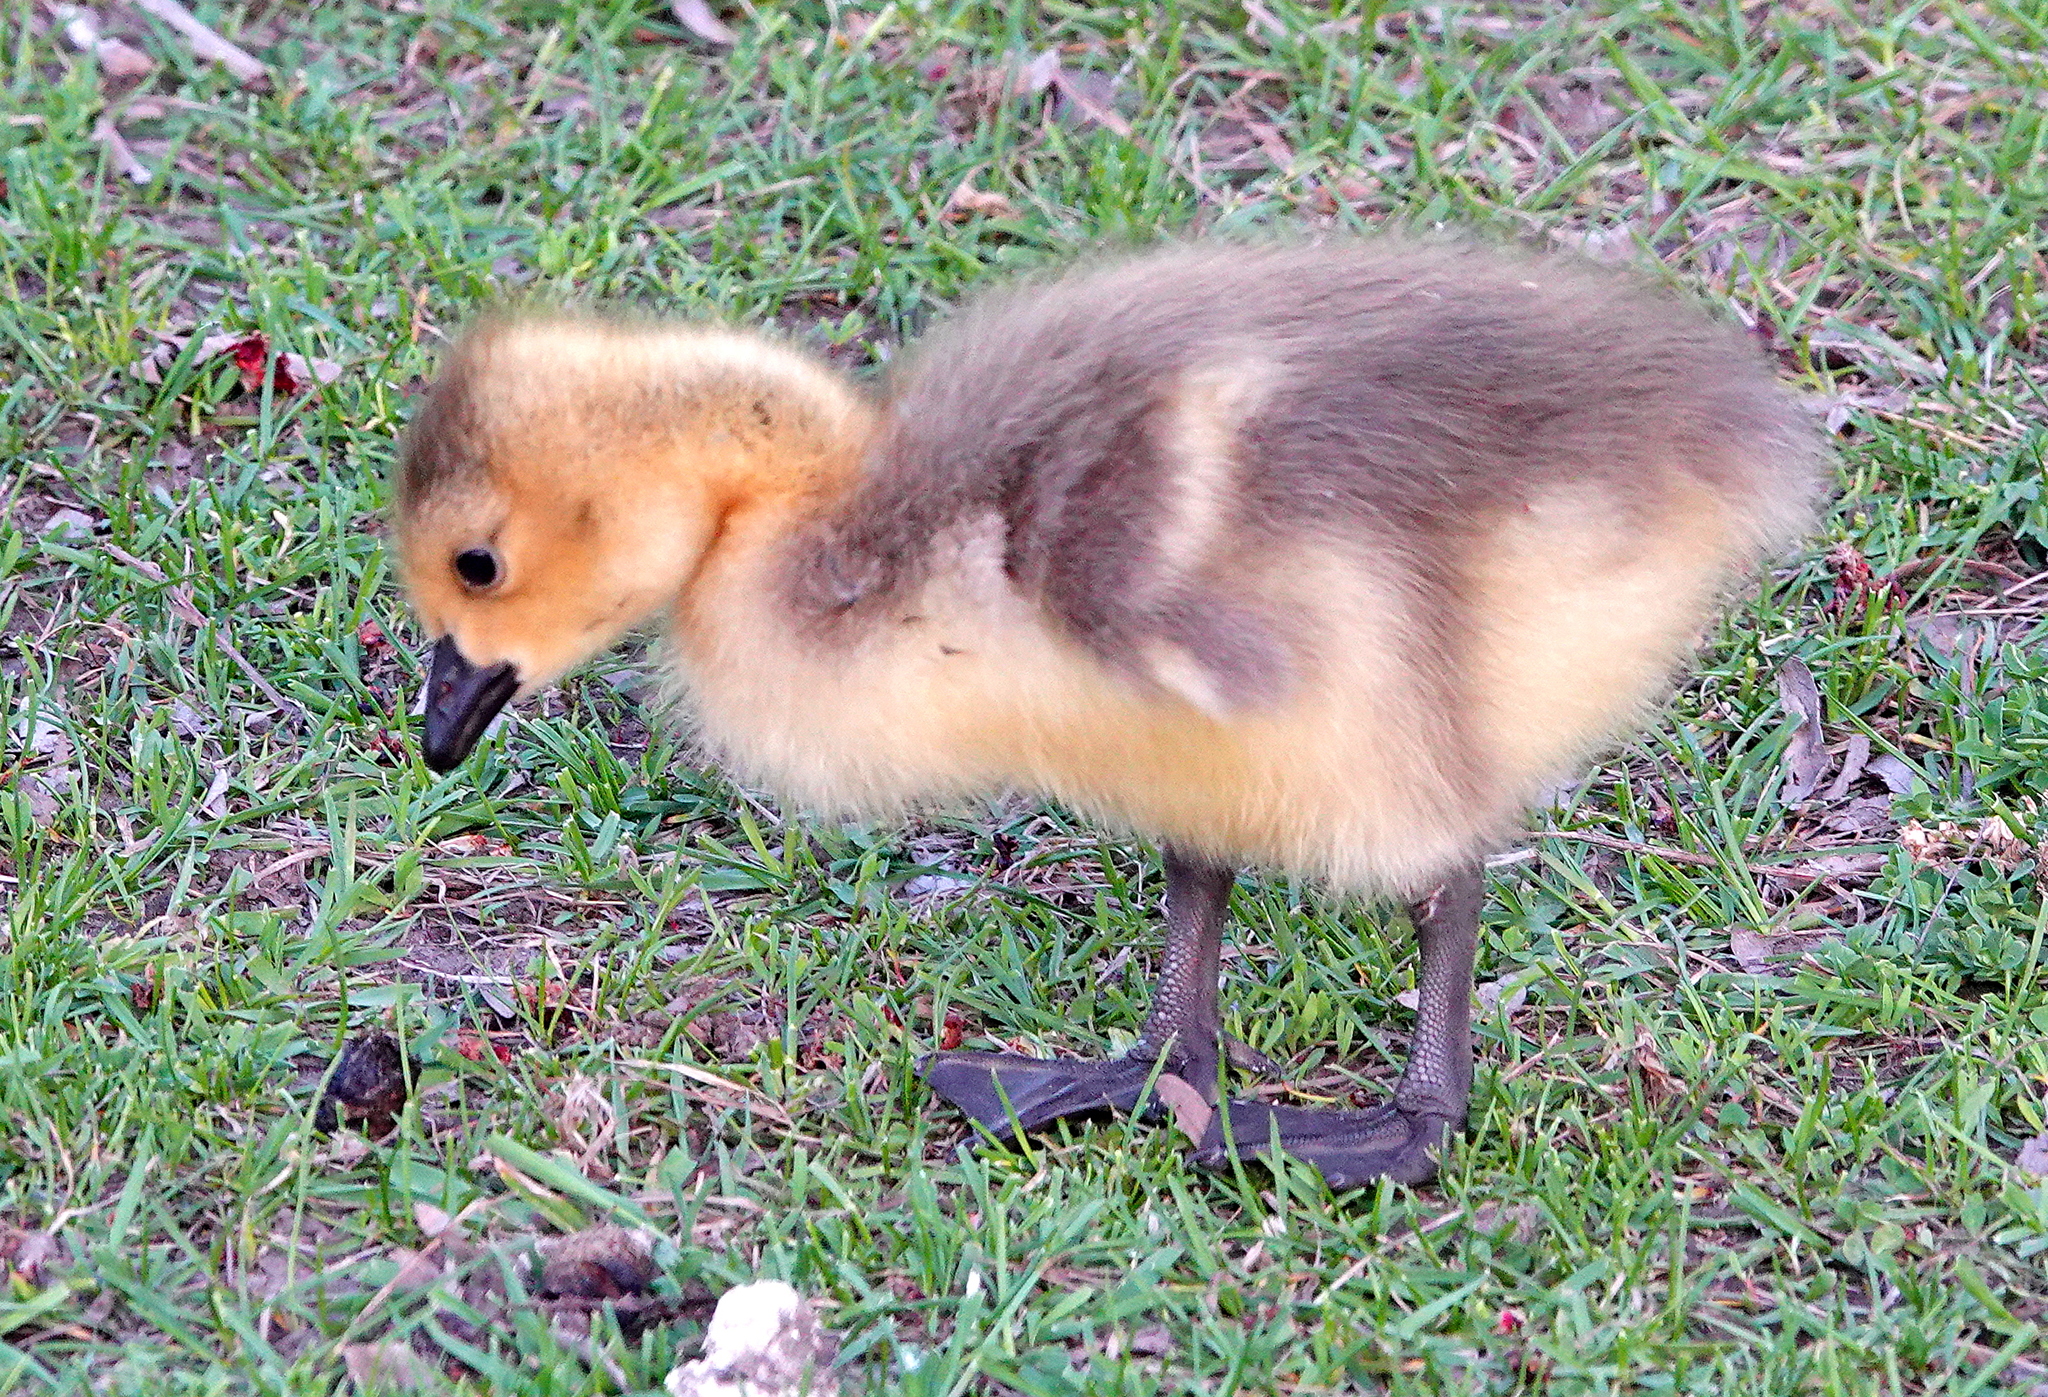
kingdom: Animalia
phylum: Chordata
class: Aves
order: Anseriformes
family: Anatidae
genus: Branta
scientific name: Branta canadensis
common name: Canada goose
